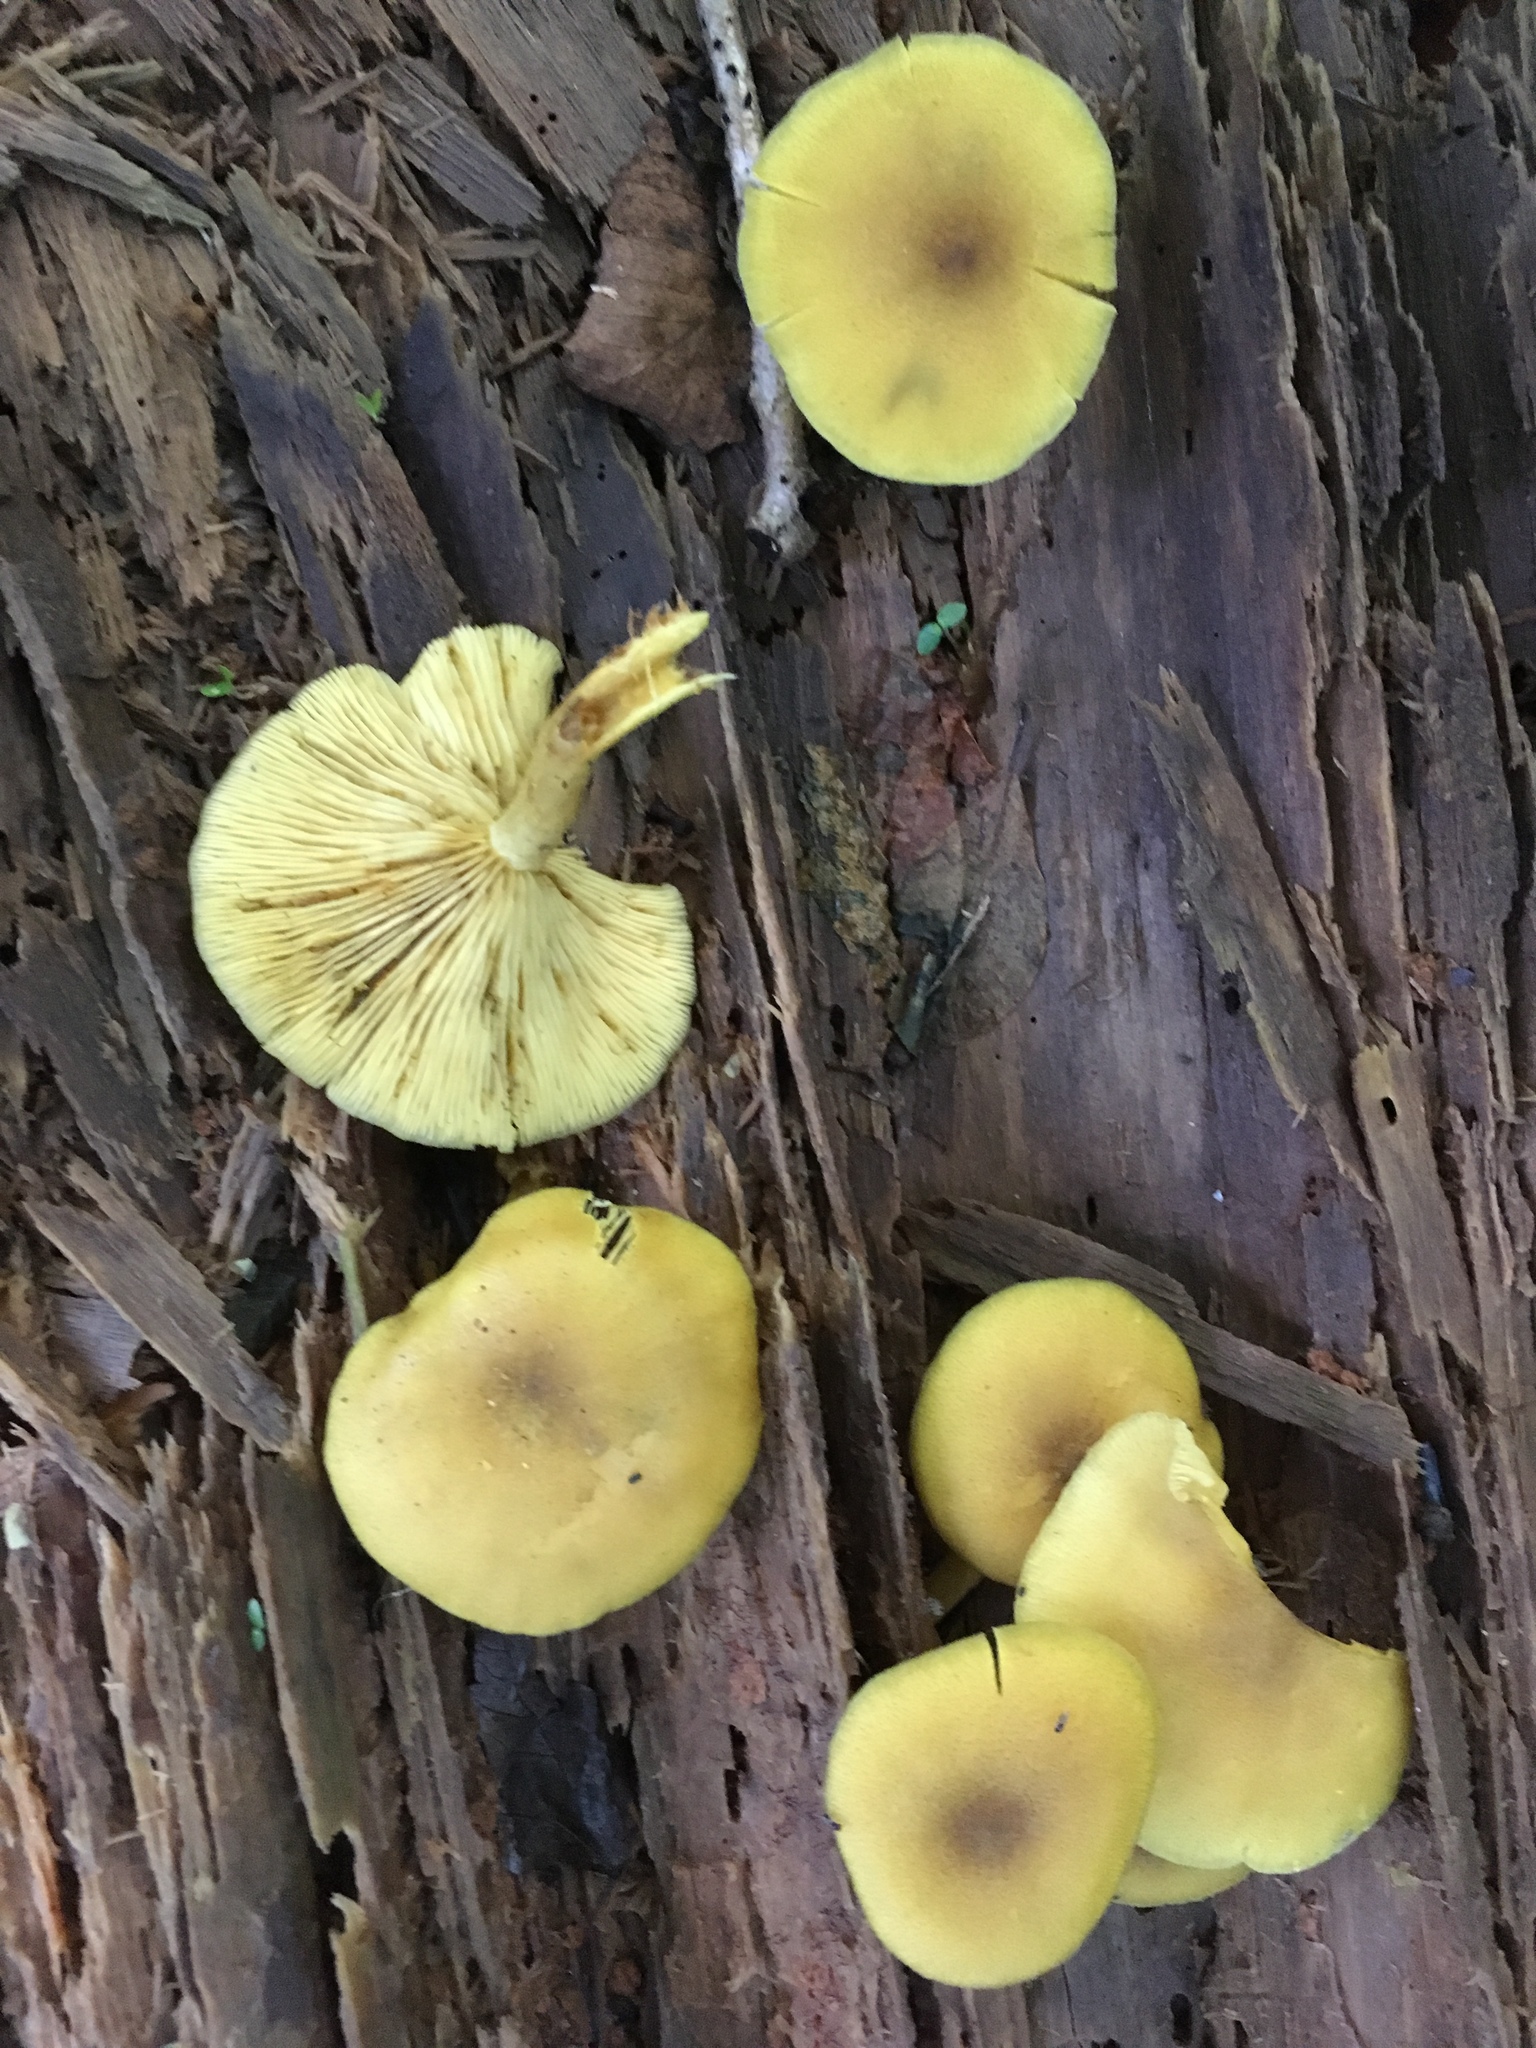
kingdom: Fungi
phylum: Basidiomycota
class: Agaricomycetes
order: Agaricales
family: Tricholomataceae
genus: Tricholomopsis
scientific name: Tricholomopsis decora
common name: Prunes and custard
